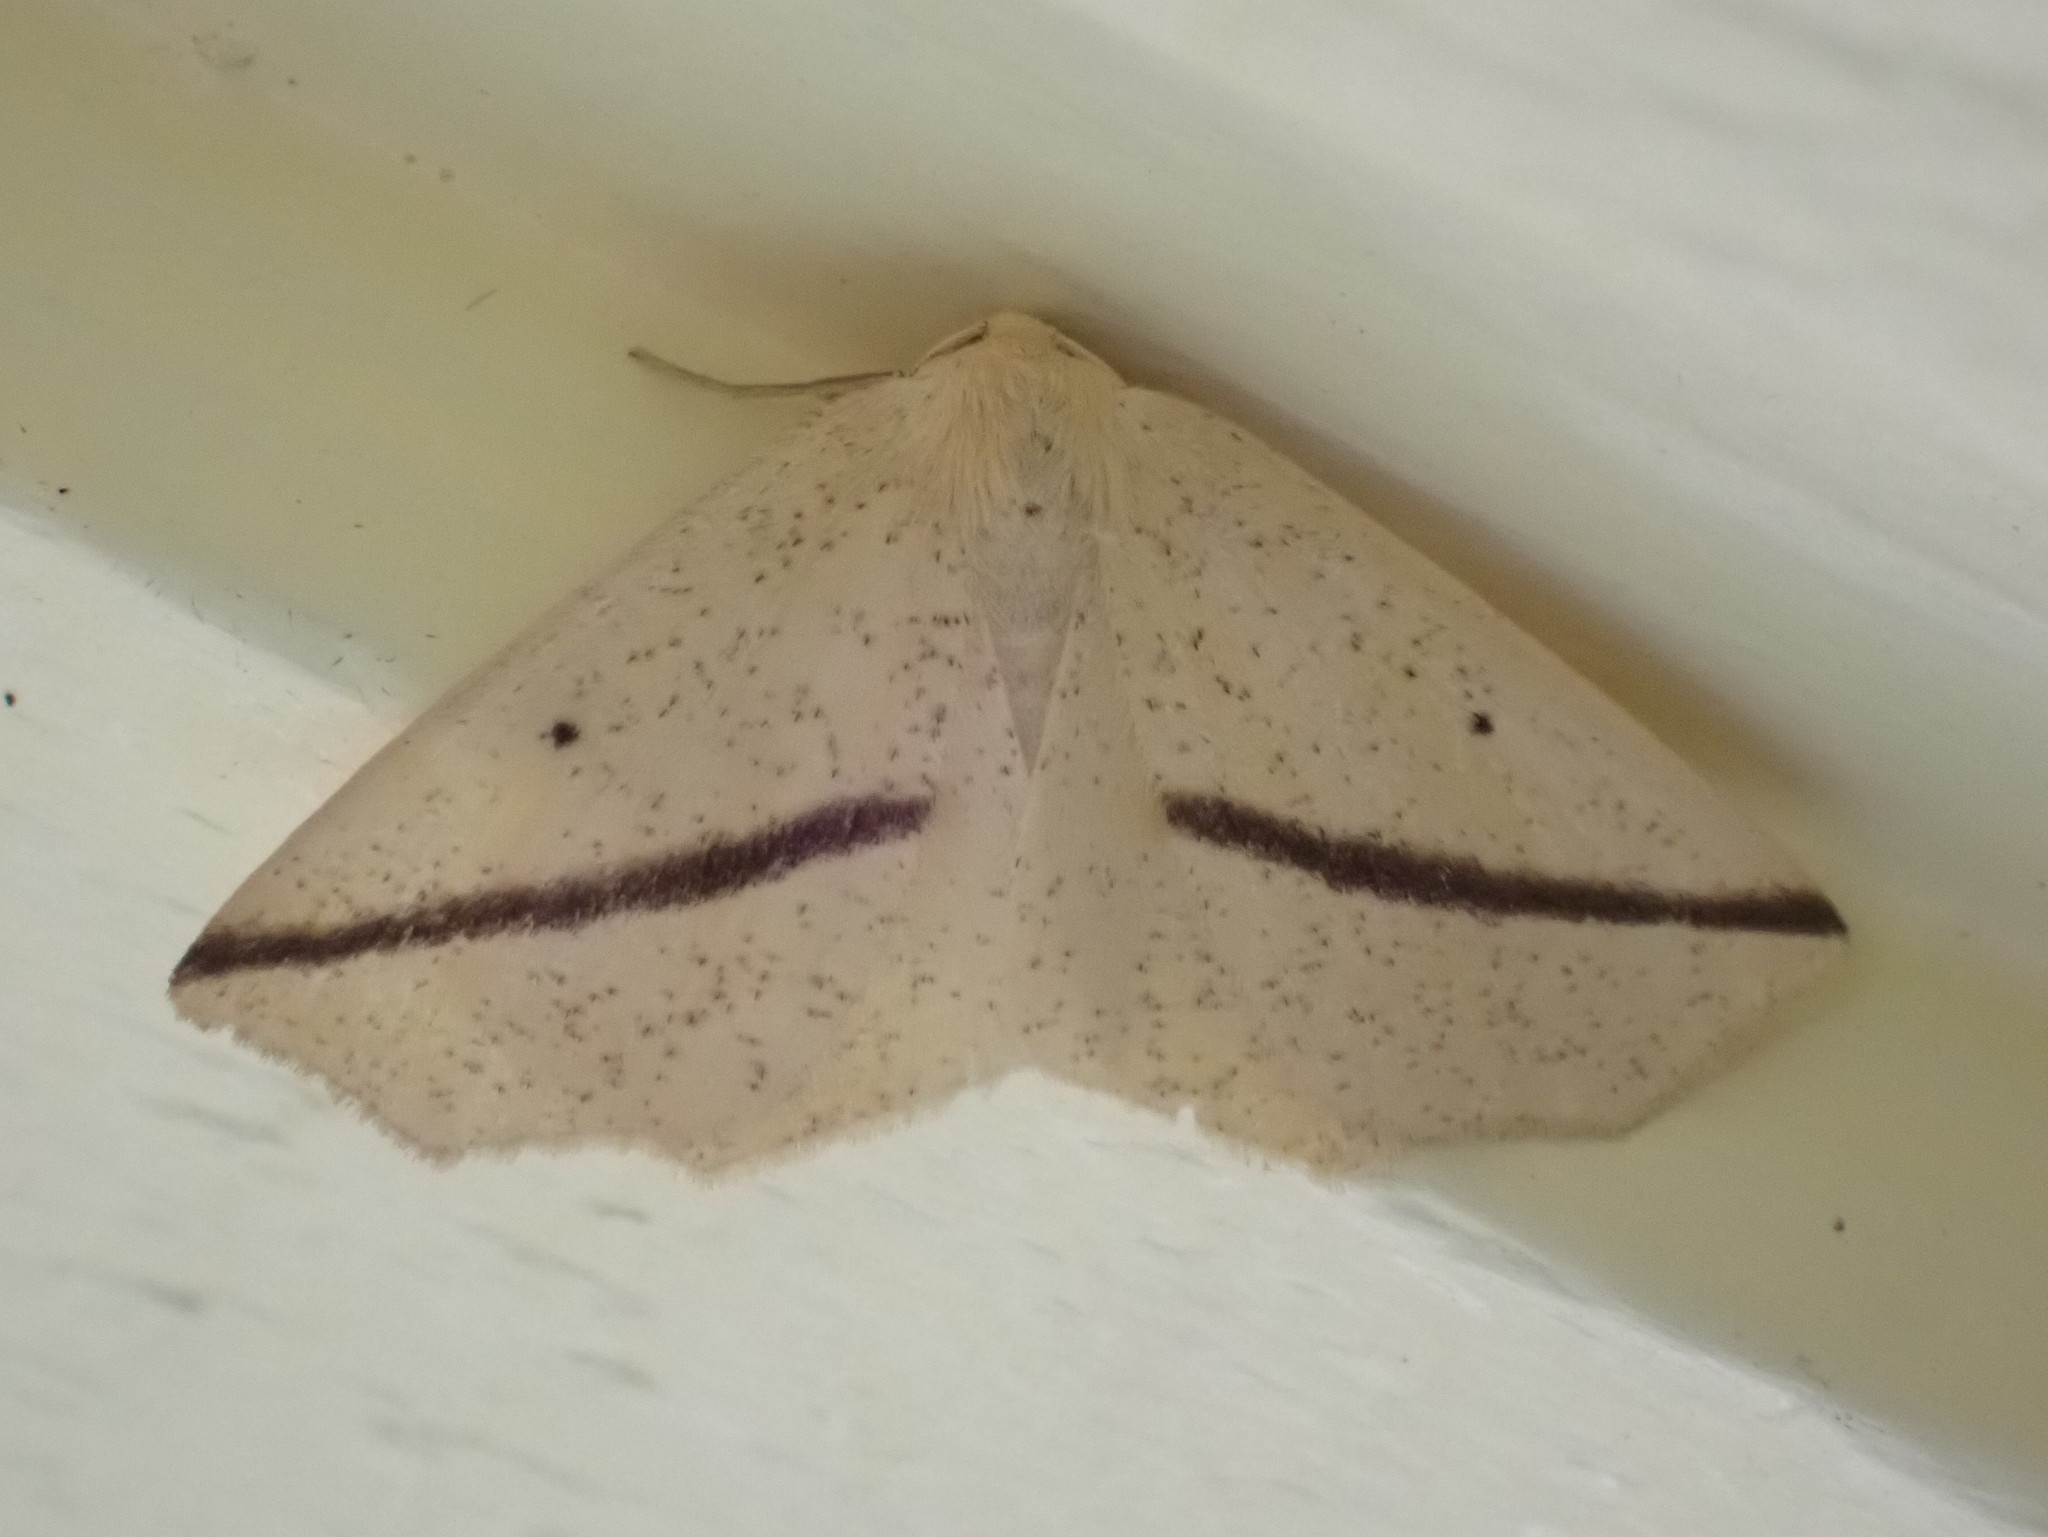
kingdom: Animalia
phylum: Arthropoda
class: Insecta
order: Lepidoptera
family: Geometridae
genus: Tetracis
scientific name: Tetracis crocallata
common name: Yellow slant-line
